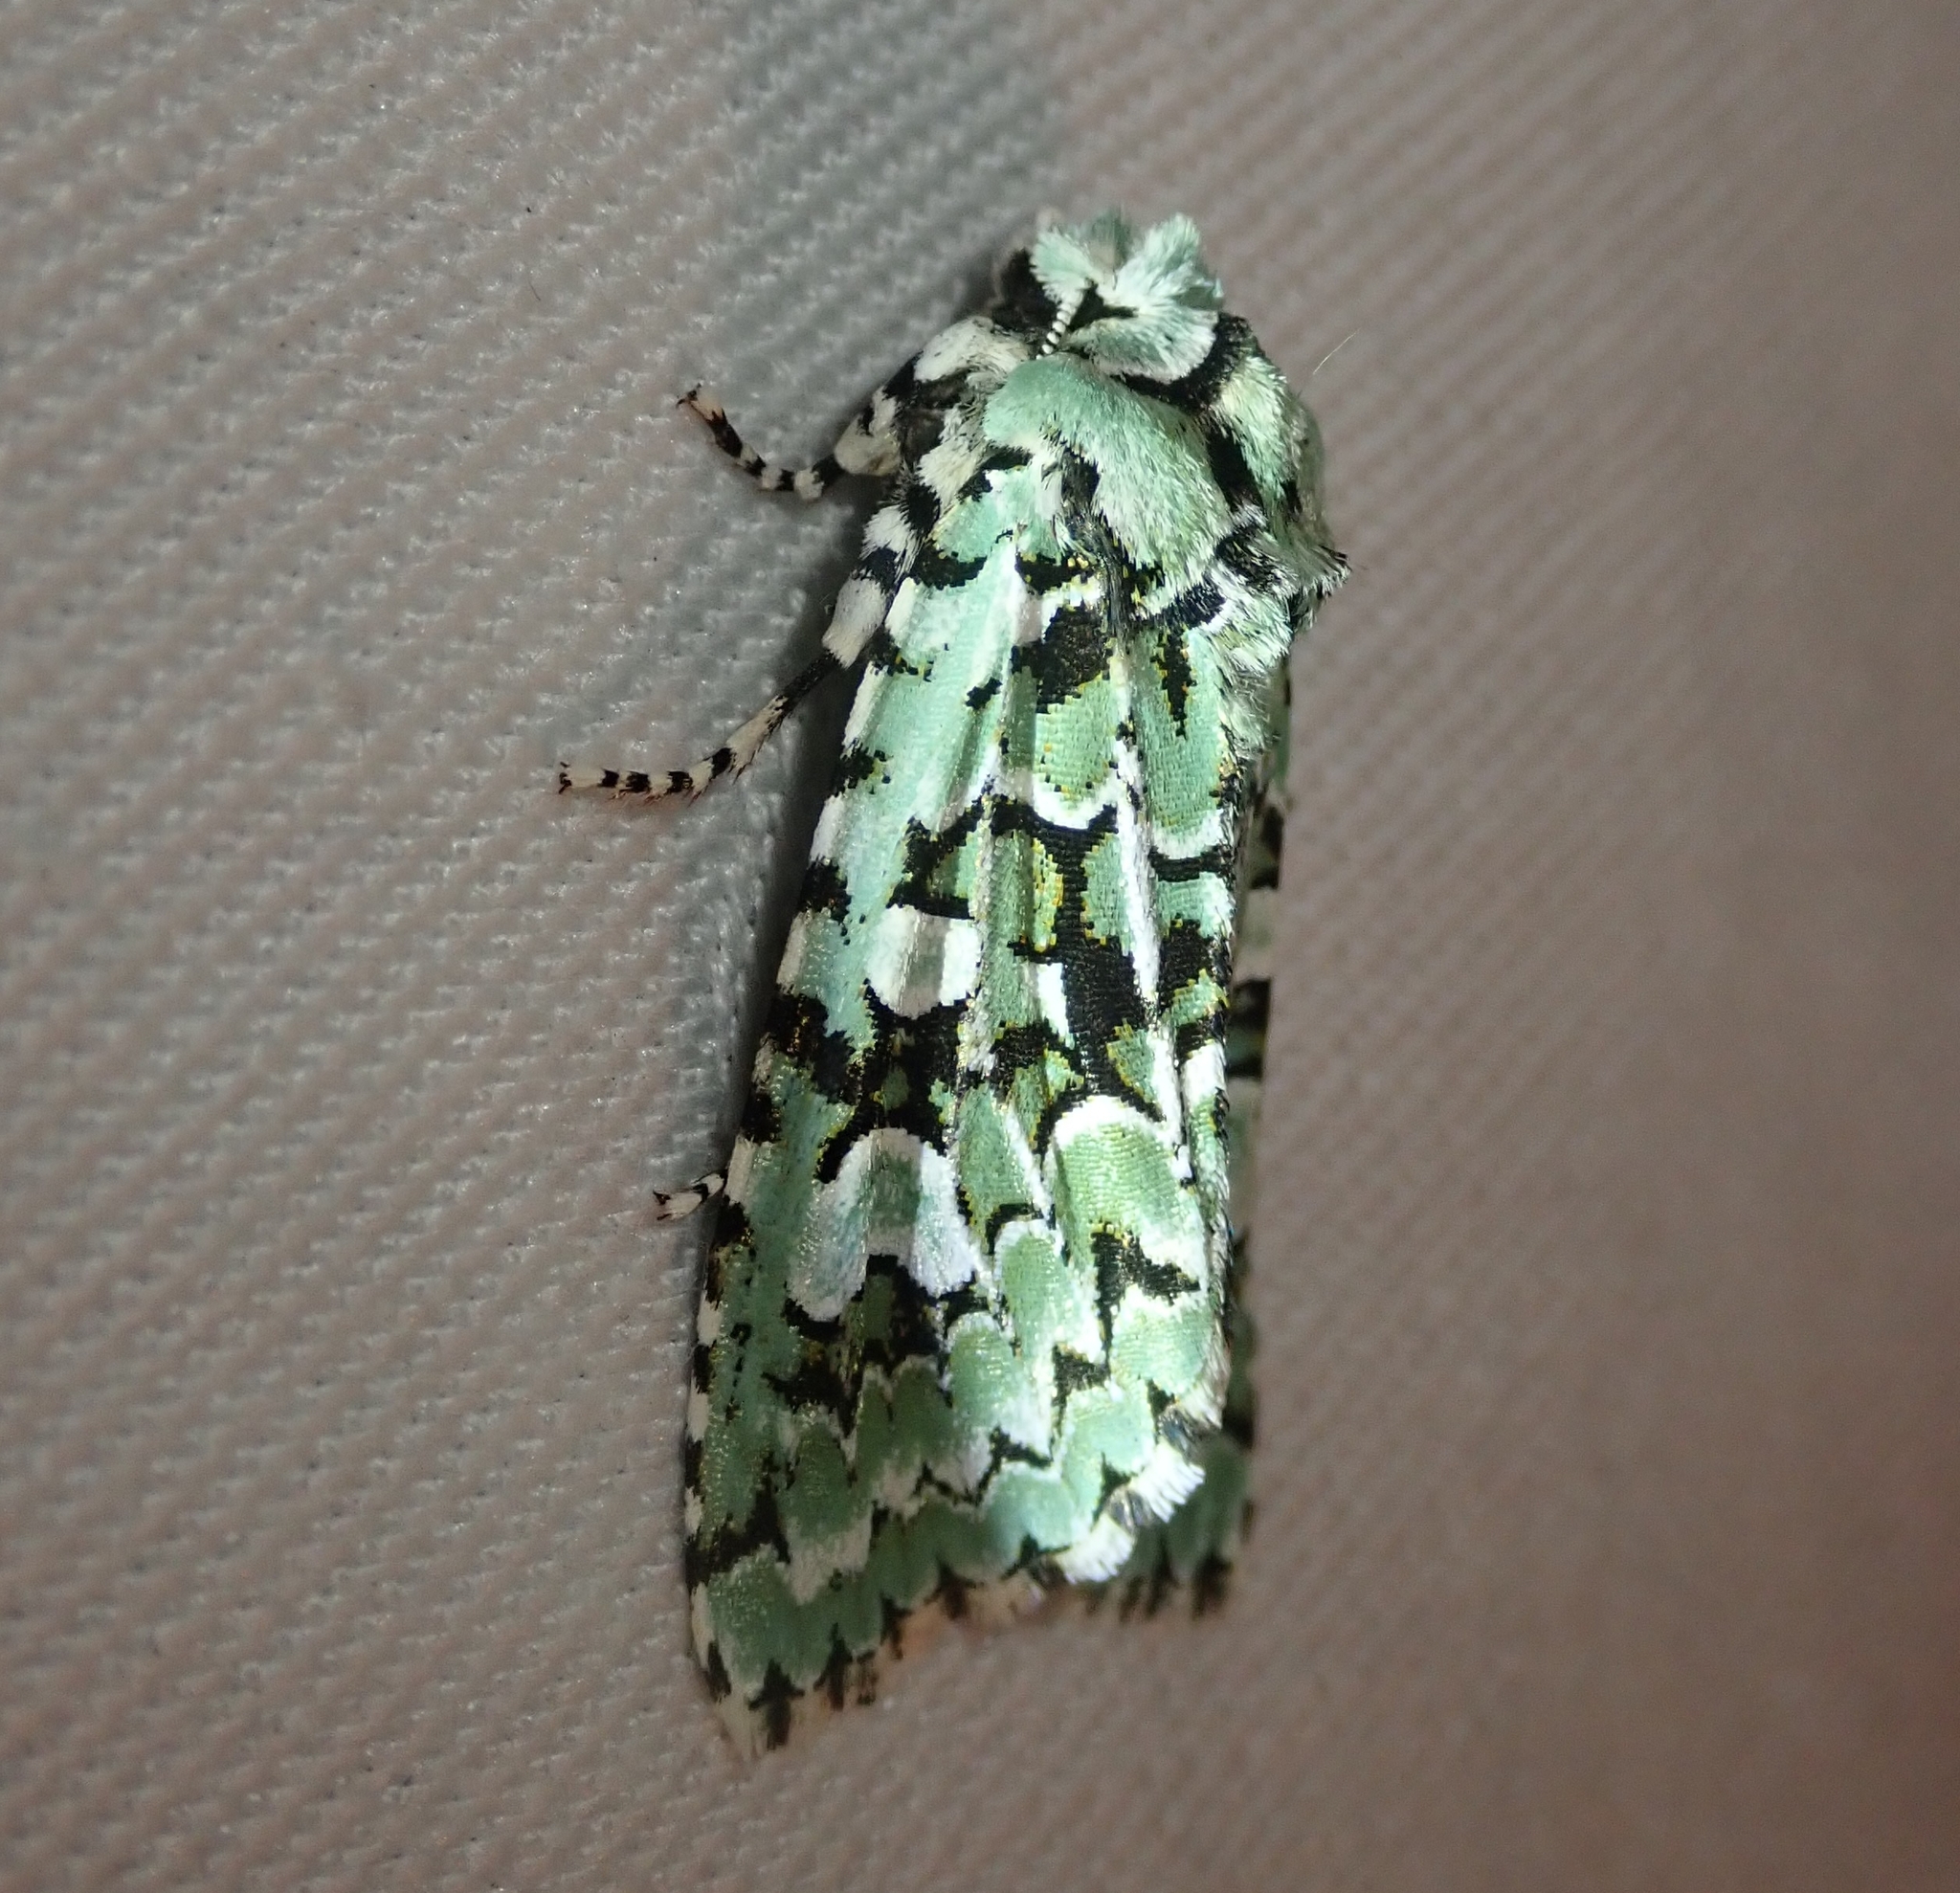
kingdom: Animalia
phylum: Arthropoda
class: Insecta
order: Lepidoptera
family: Noctuidae
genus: Griposia
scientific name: Griposia aprilina
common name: Merveille du jour
